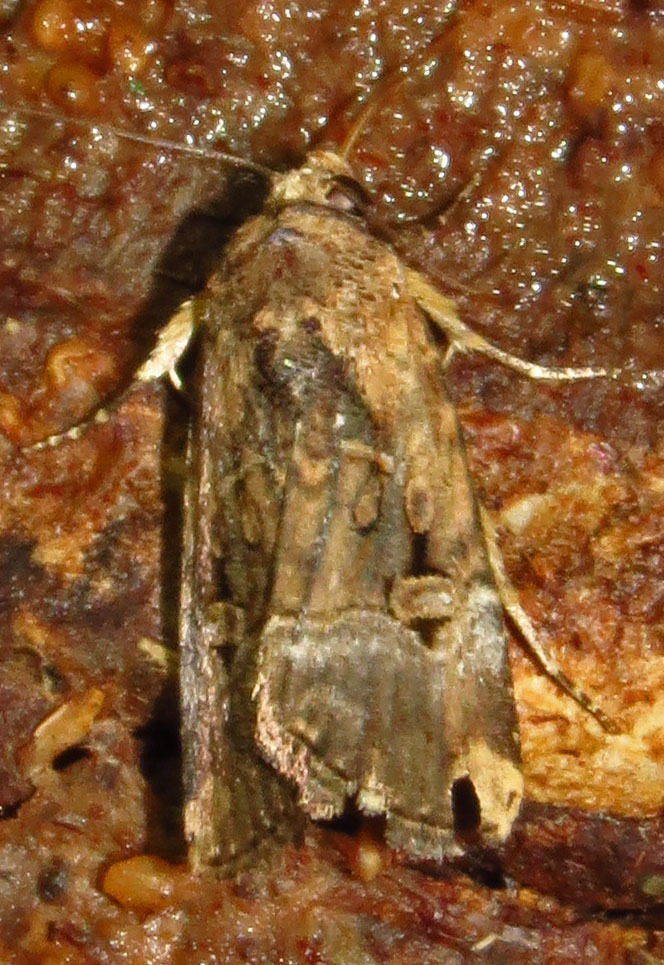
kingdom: Animalia
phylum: Arthropoda
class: Insecta
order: Lepidoptera
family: Noctuidae
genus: Elaphria
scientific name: Elaphria chalcedonia
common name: Chalcedony midget
